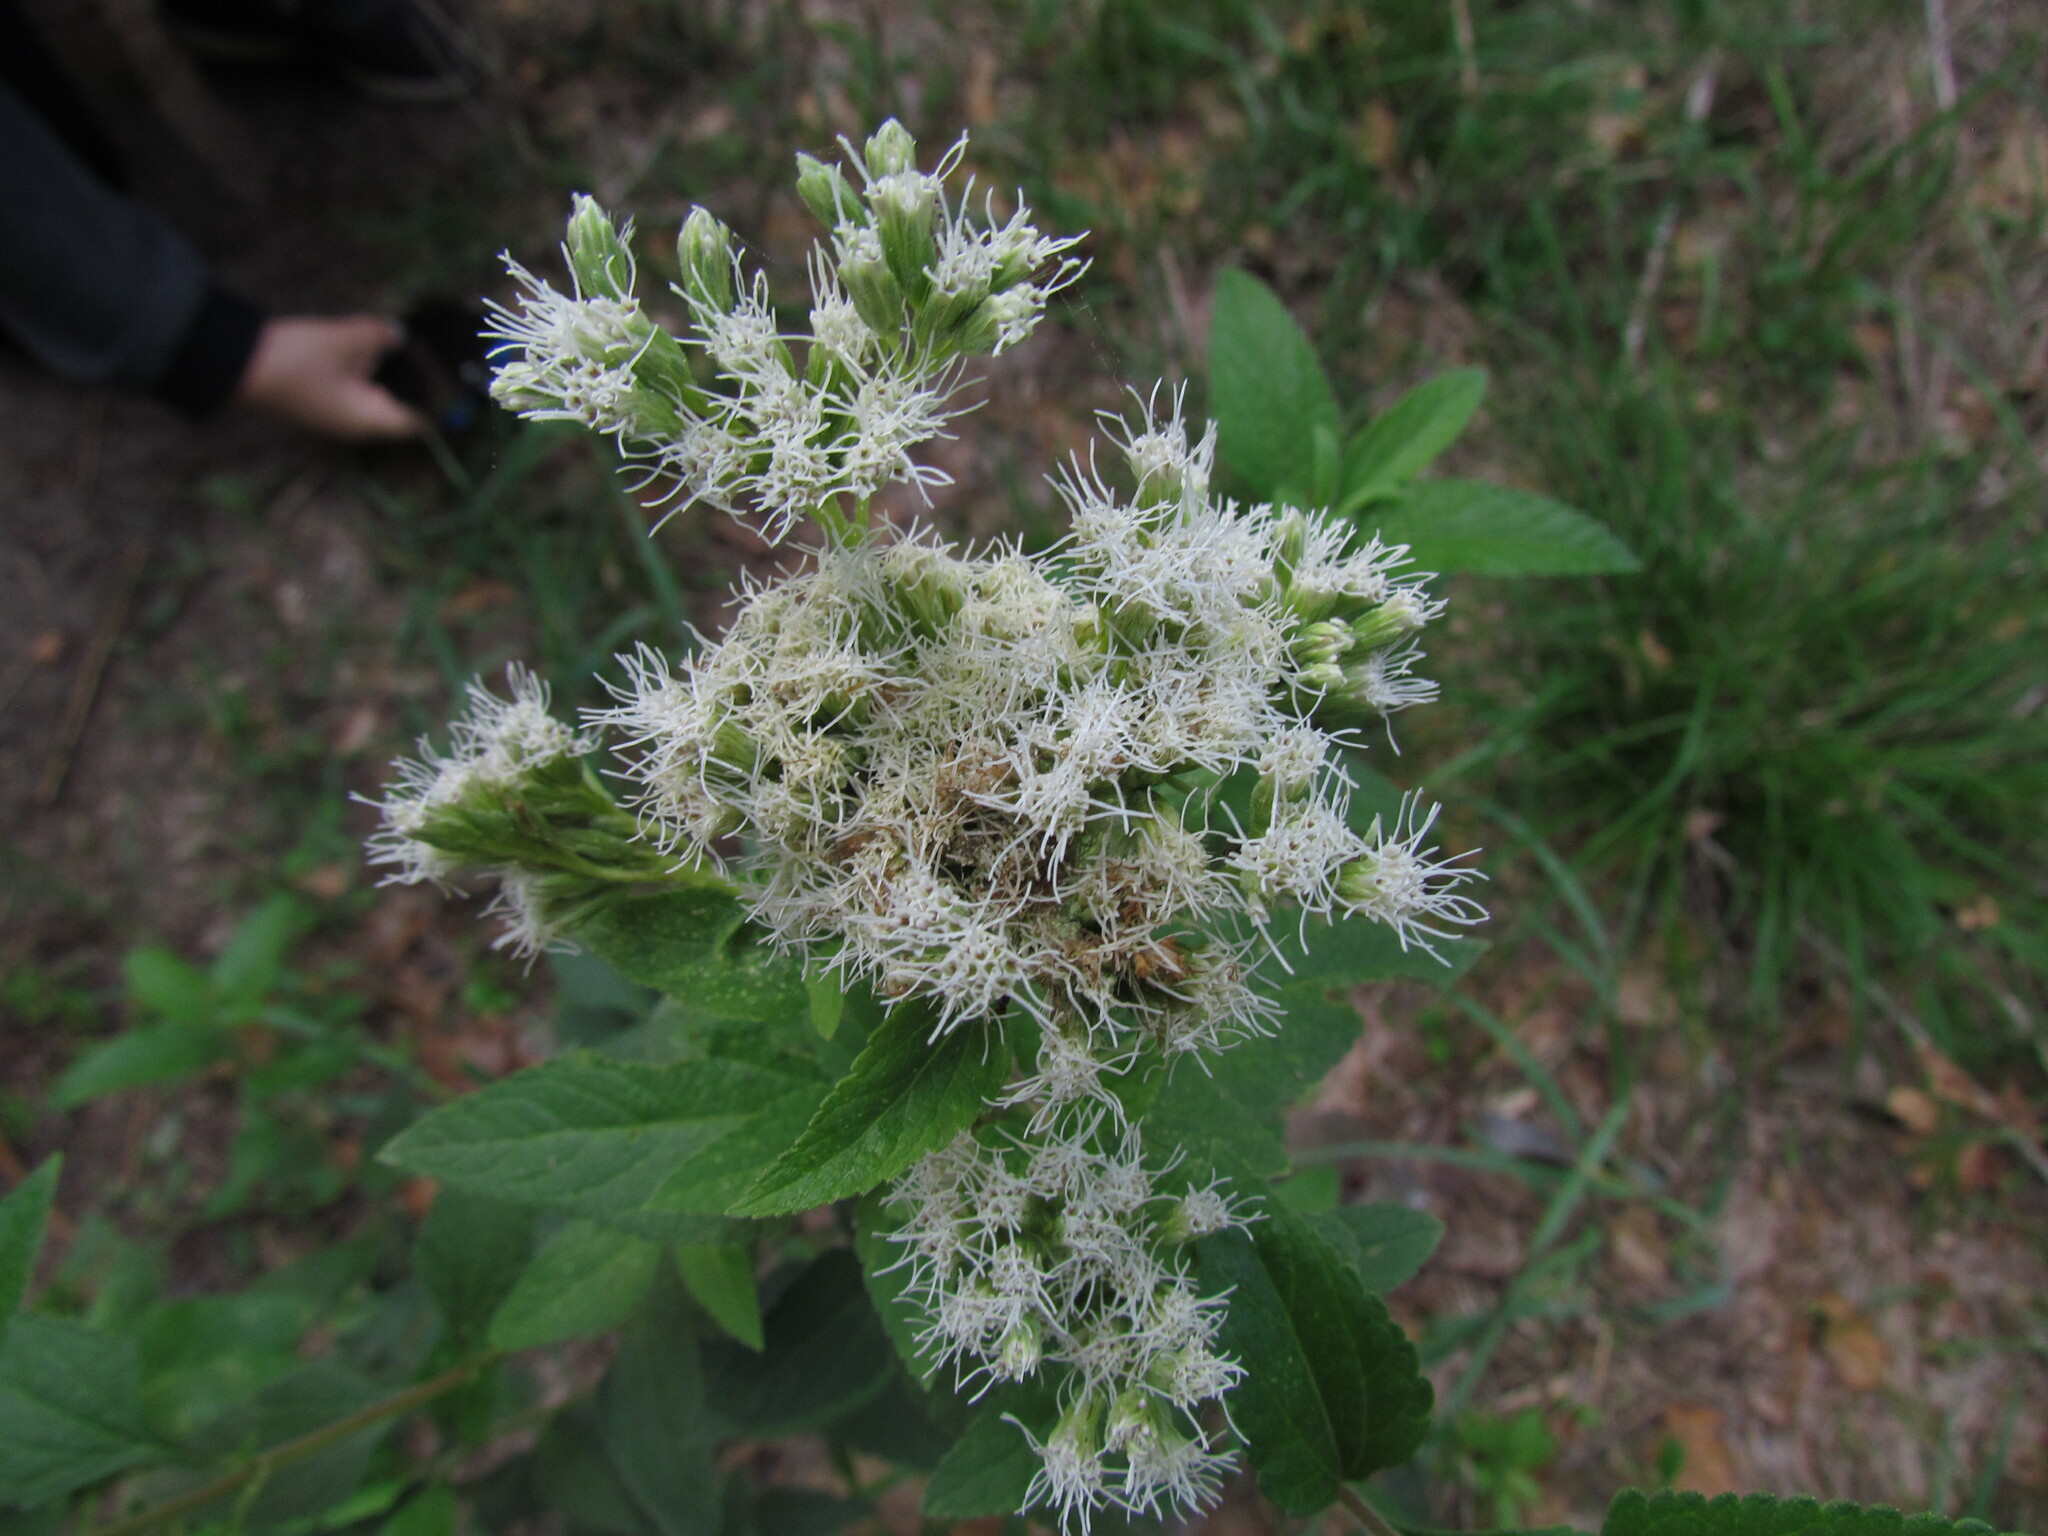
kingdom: Plantae
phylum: Tracheophyta
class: Magnoliopsida
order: Asterales
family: Asteraceae
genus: Austroeupatorium
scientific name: Austroeupatorium inulifolium
